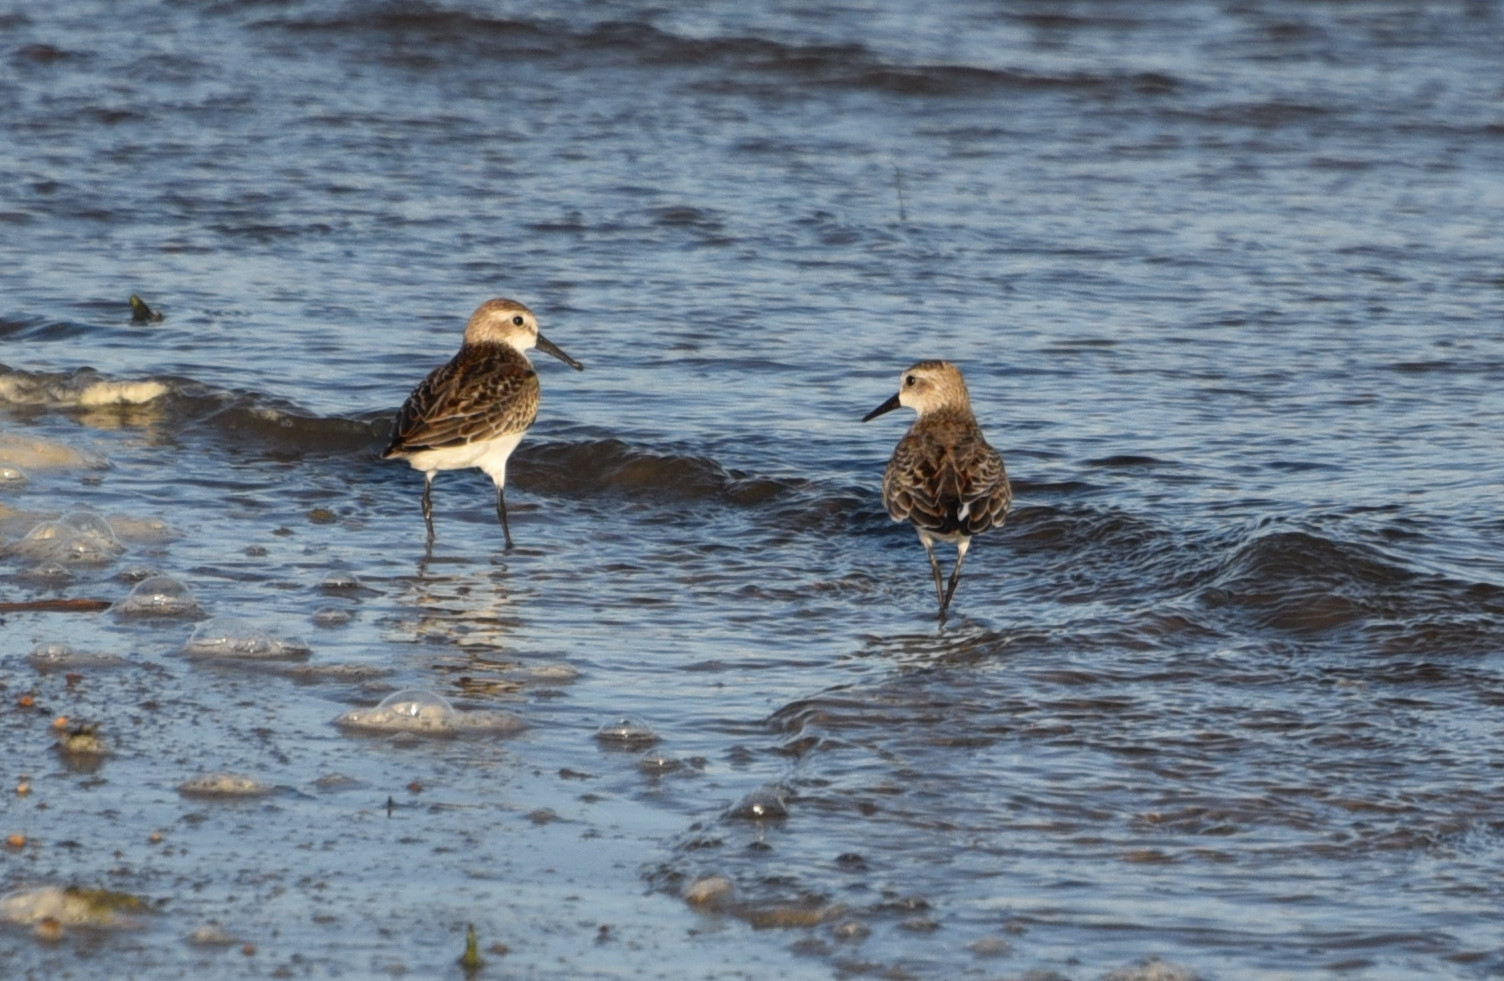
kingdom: Animalia
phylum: Chordata
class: Aves
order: Charadriiformes
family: Scolopacidae
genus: Calidris
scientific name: Calidris mauri
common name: Western sandpiper
